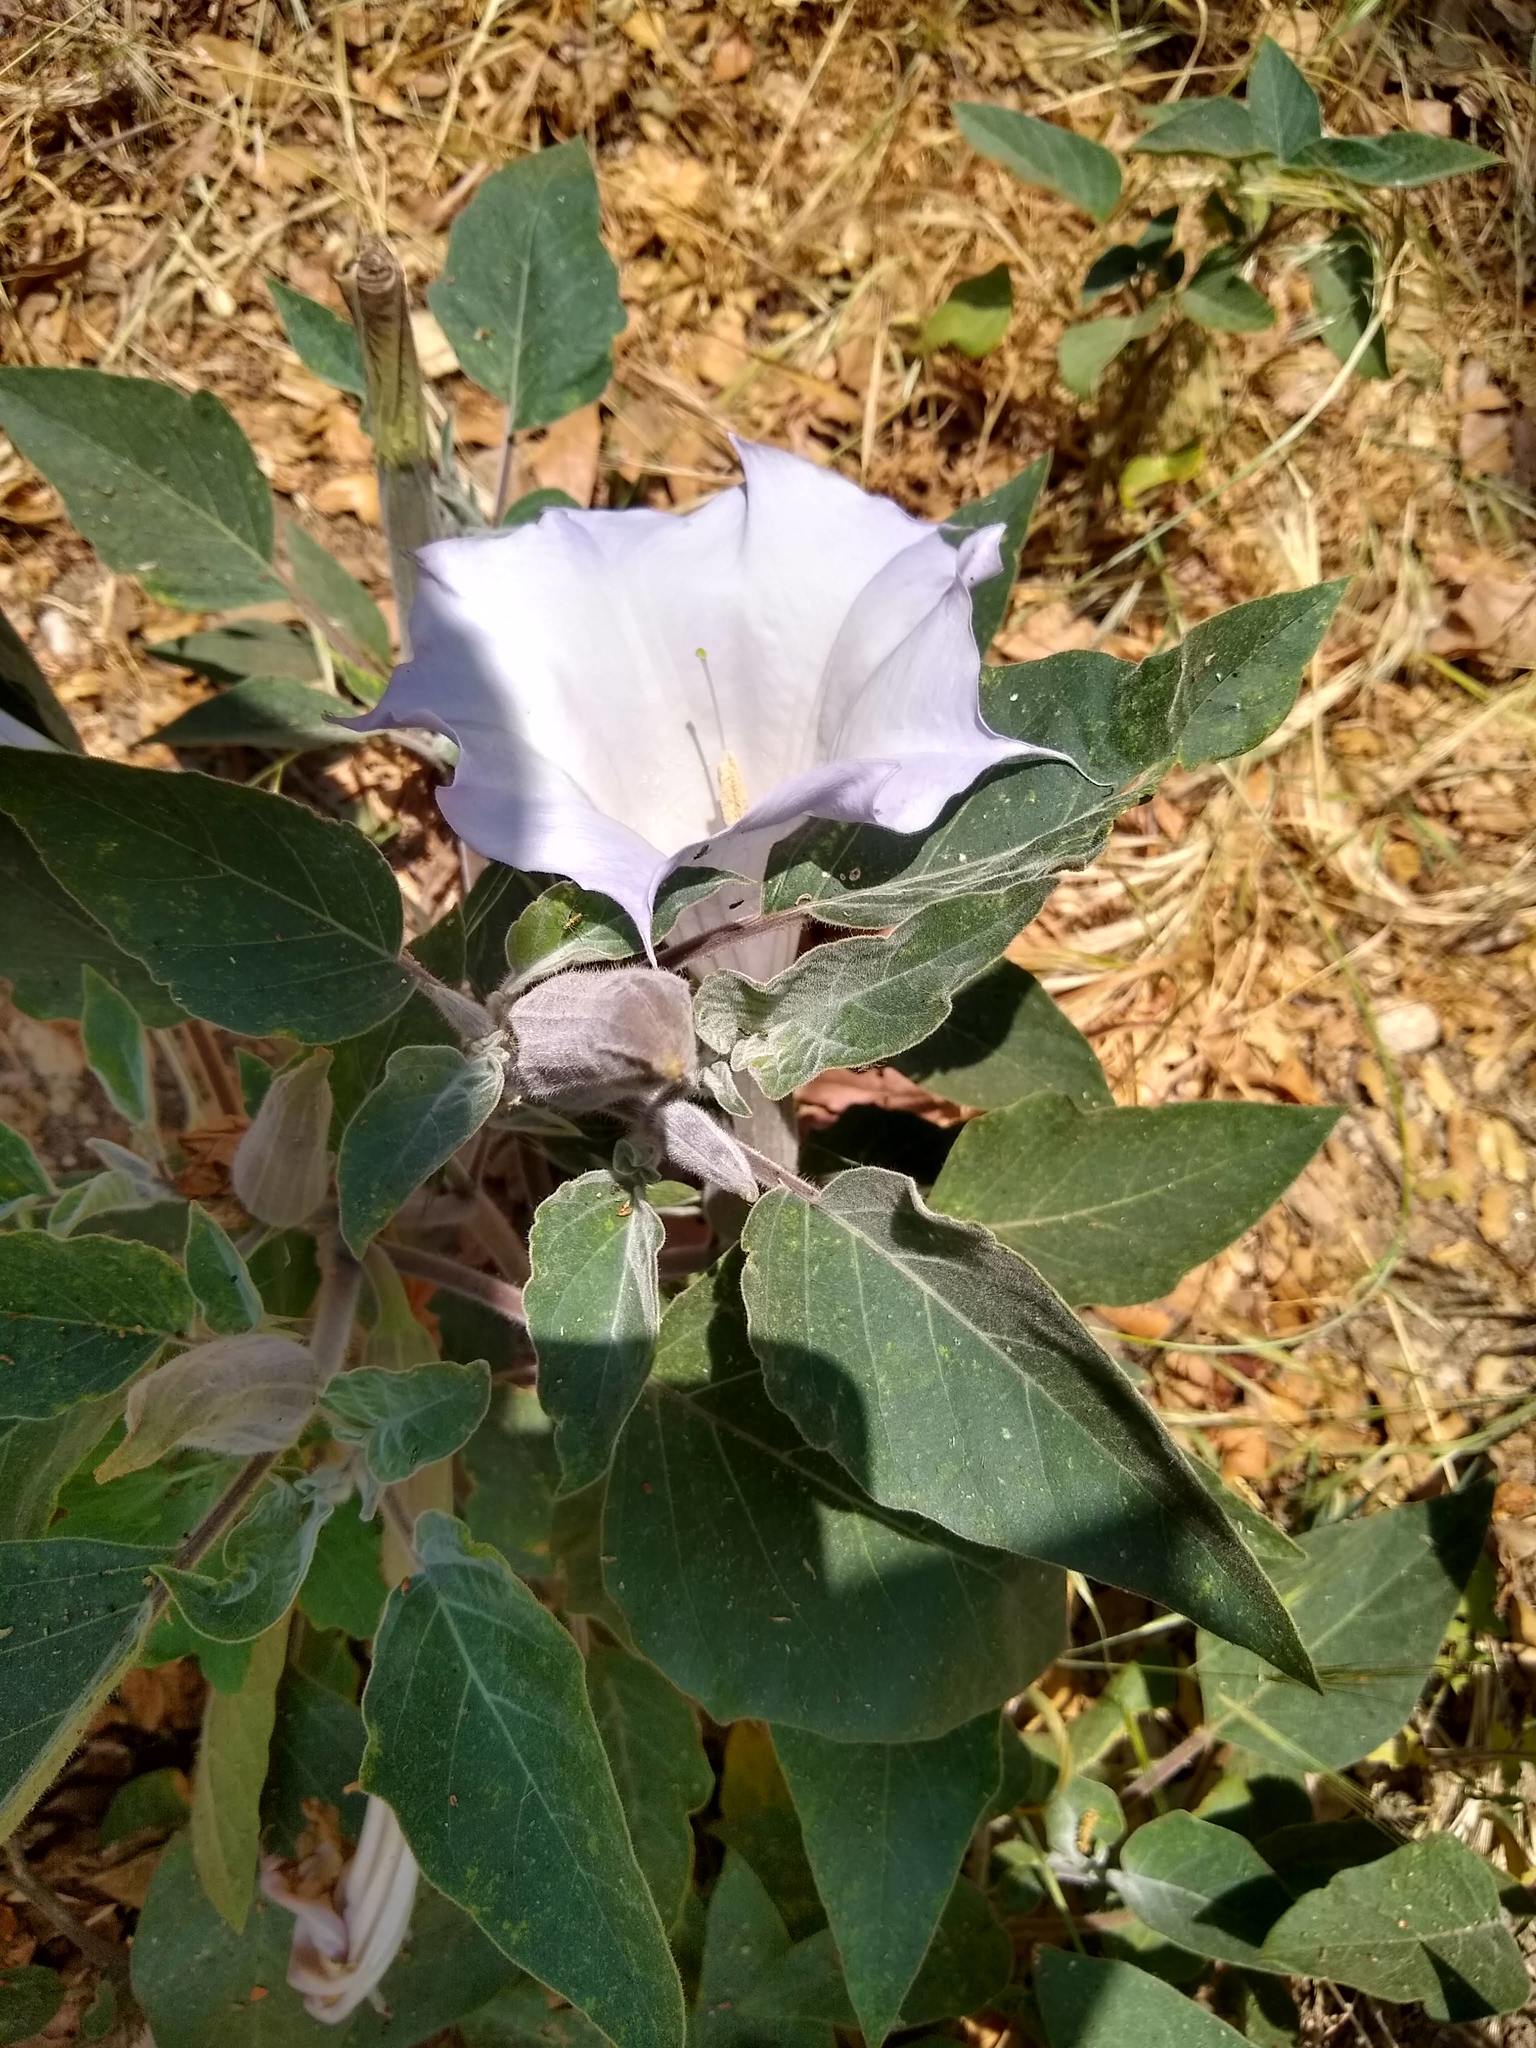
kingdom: Plantae
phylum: Tracheophyta
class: Magnoliopsida
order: Solanales
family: Solanaceae
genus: Datura
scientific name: Datura wrightii
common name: Sacred thorn-apple
